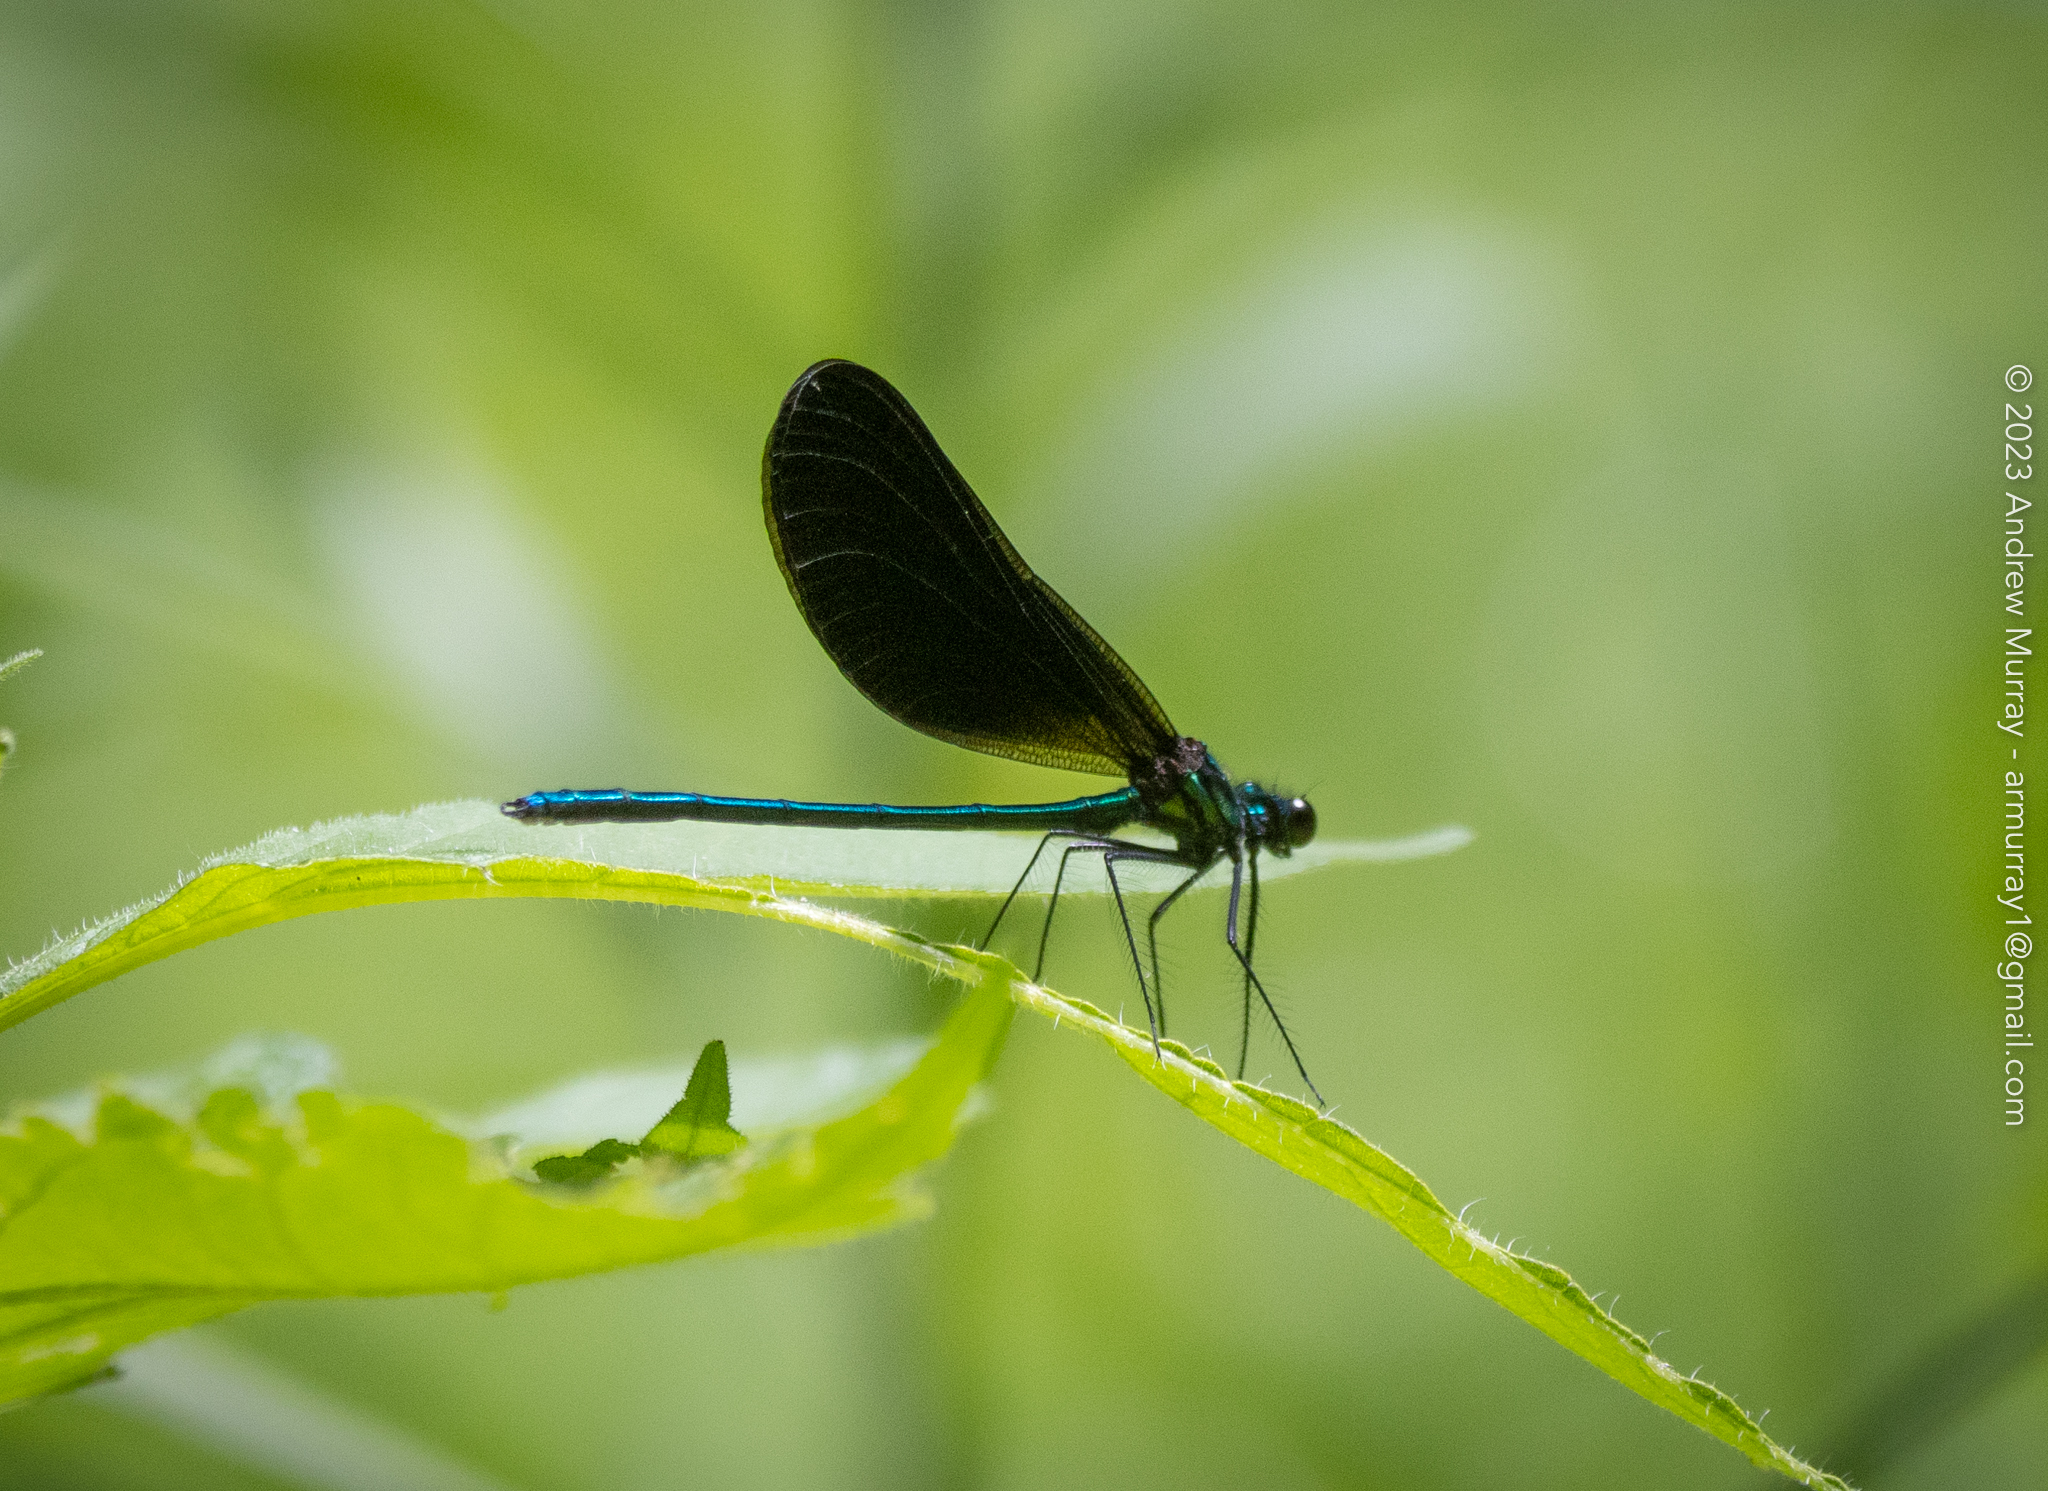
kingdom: Animalia
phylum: Arthropoda
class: Insecta
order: Odonata
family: Calopterygidae
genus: Calopteryx
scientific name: Calopteryx maculata
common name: Ebony jewelwing
